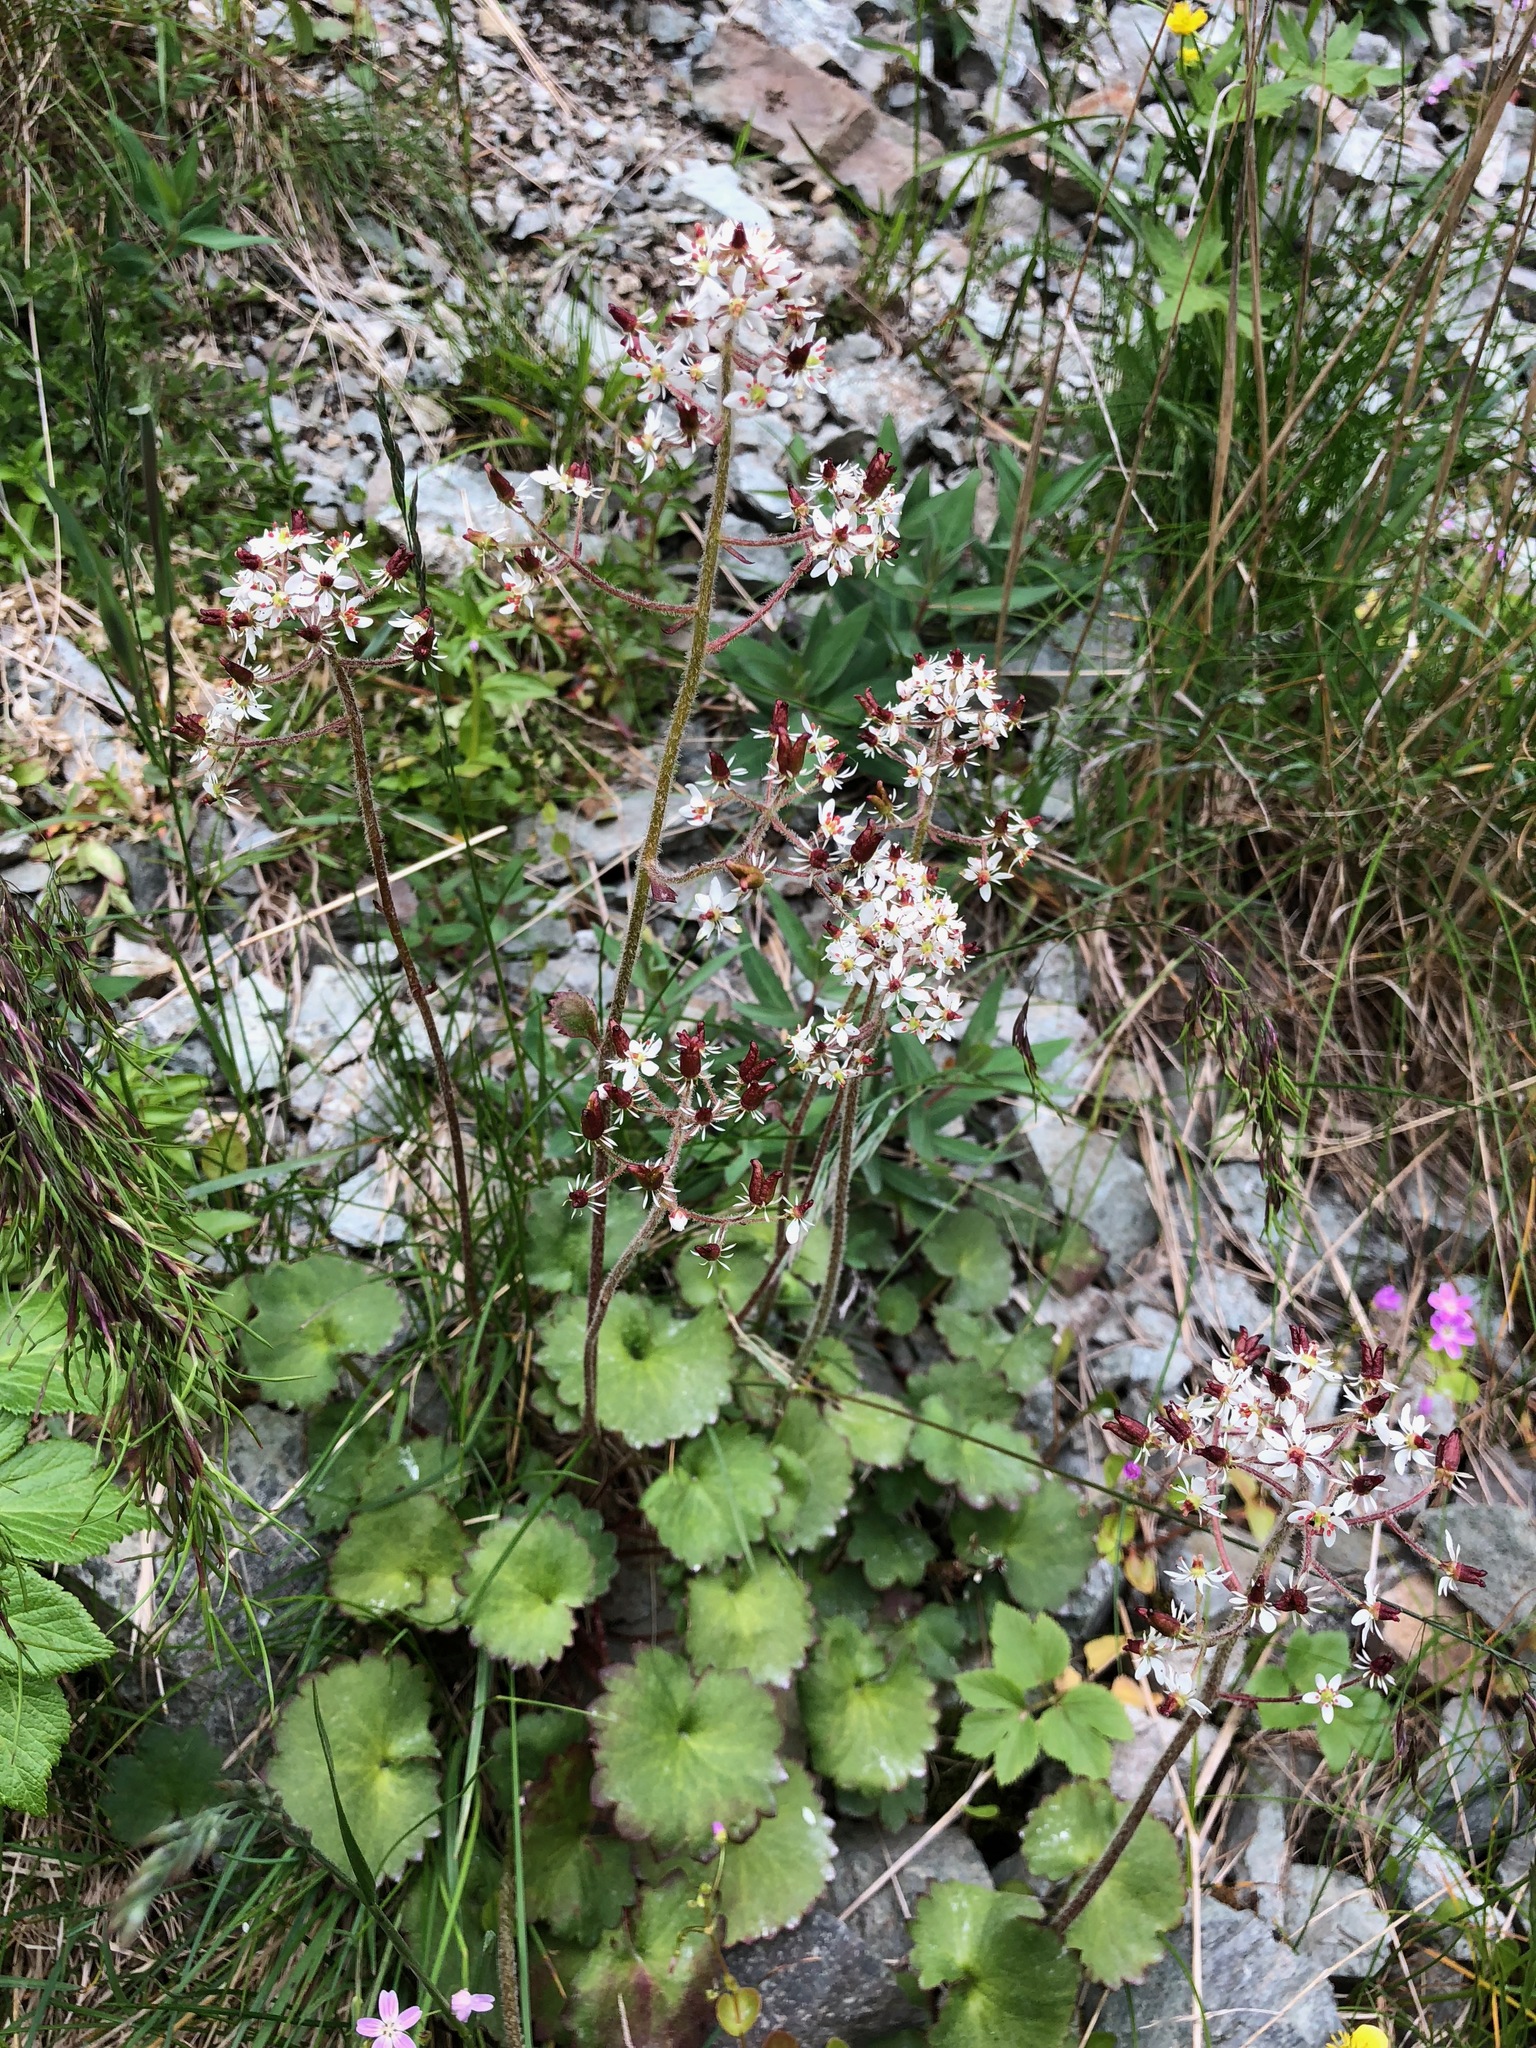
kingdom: Plantae
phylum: Tracheophyta
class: Magnoliopsida
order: Saxifragales
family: Saxifragaceae
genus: Micranthes
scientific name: Micranthes nelsoniana
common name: Nelson's saxifrage
